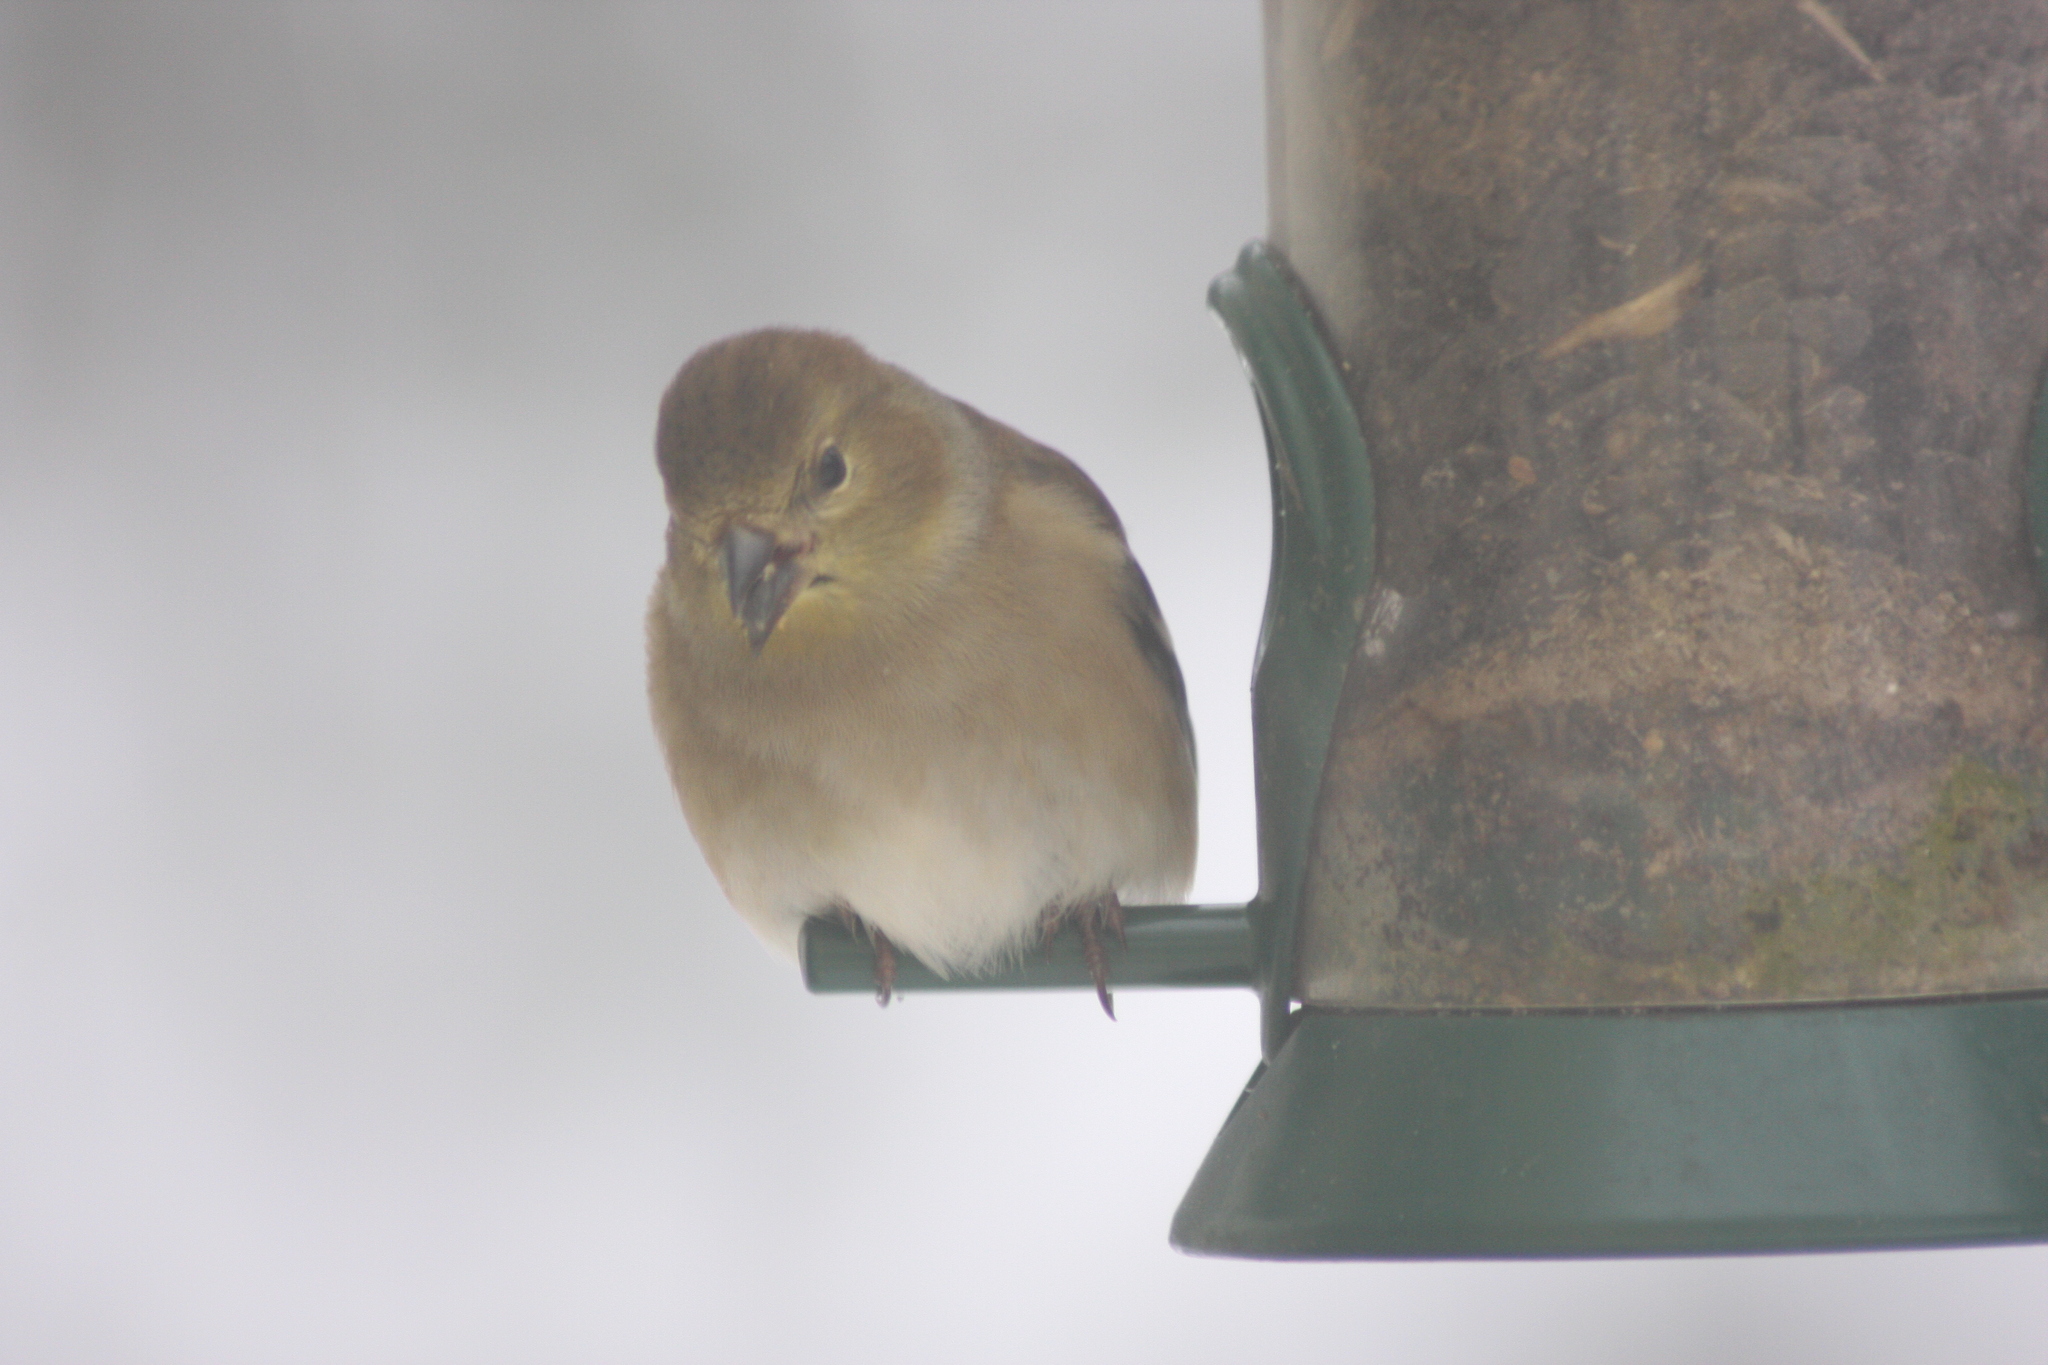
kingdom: Animalia
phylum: Chordata
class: Aves
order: Passeriformes
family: Fringillidae
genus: Spinus
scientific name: Spinus tristis
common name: American goldfinch
